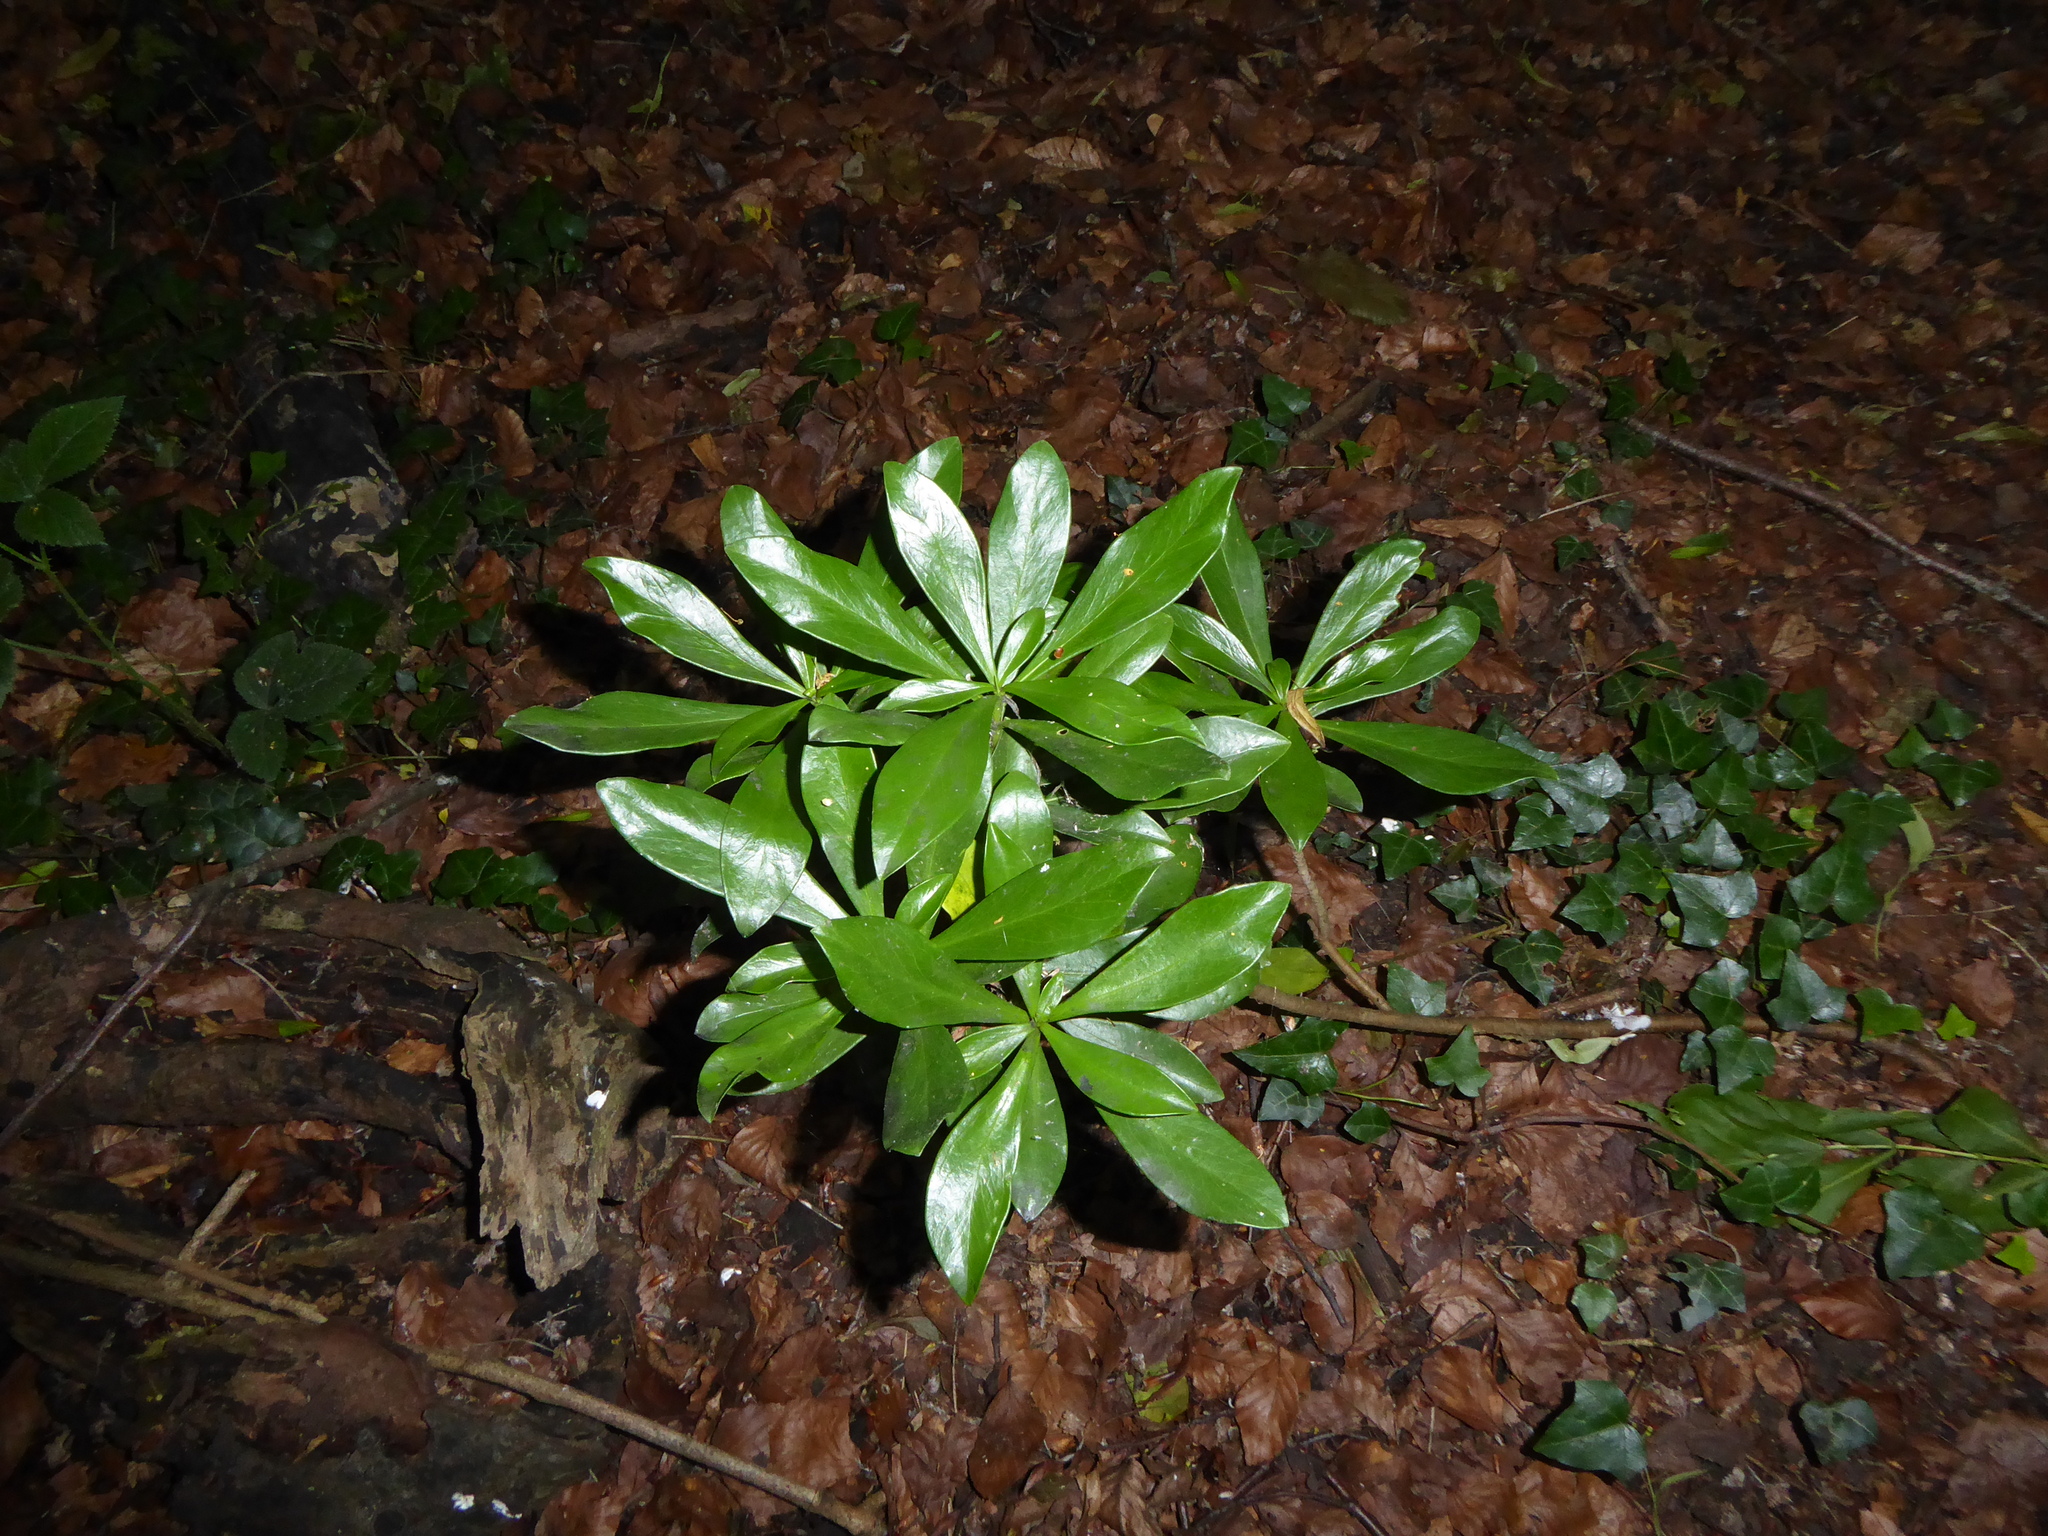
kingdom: Plantae
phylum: Tracheophyta
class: Magnoliopsida
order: Malvales
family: Thymelaeaceae
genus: Daphne
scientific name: Daphne laureola
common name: Spurge-laurel
